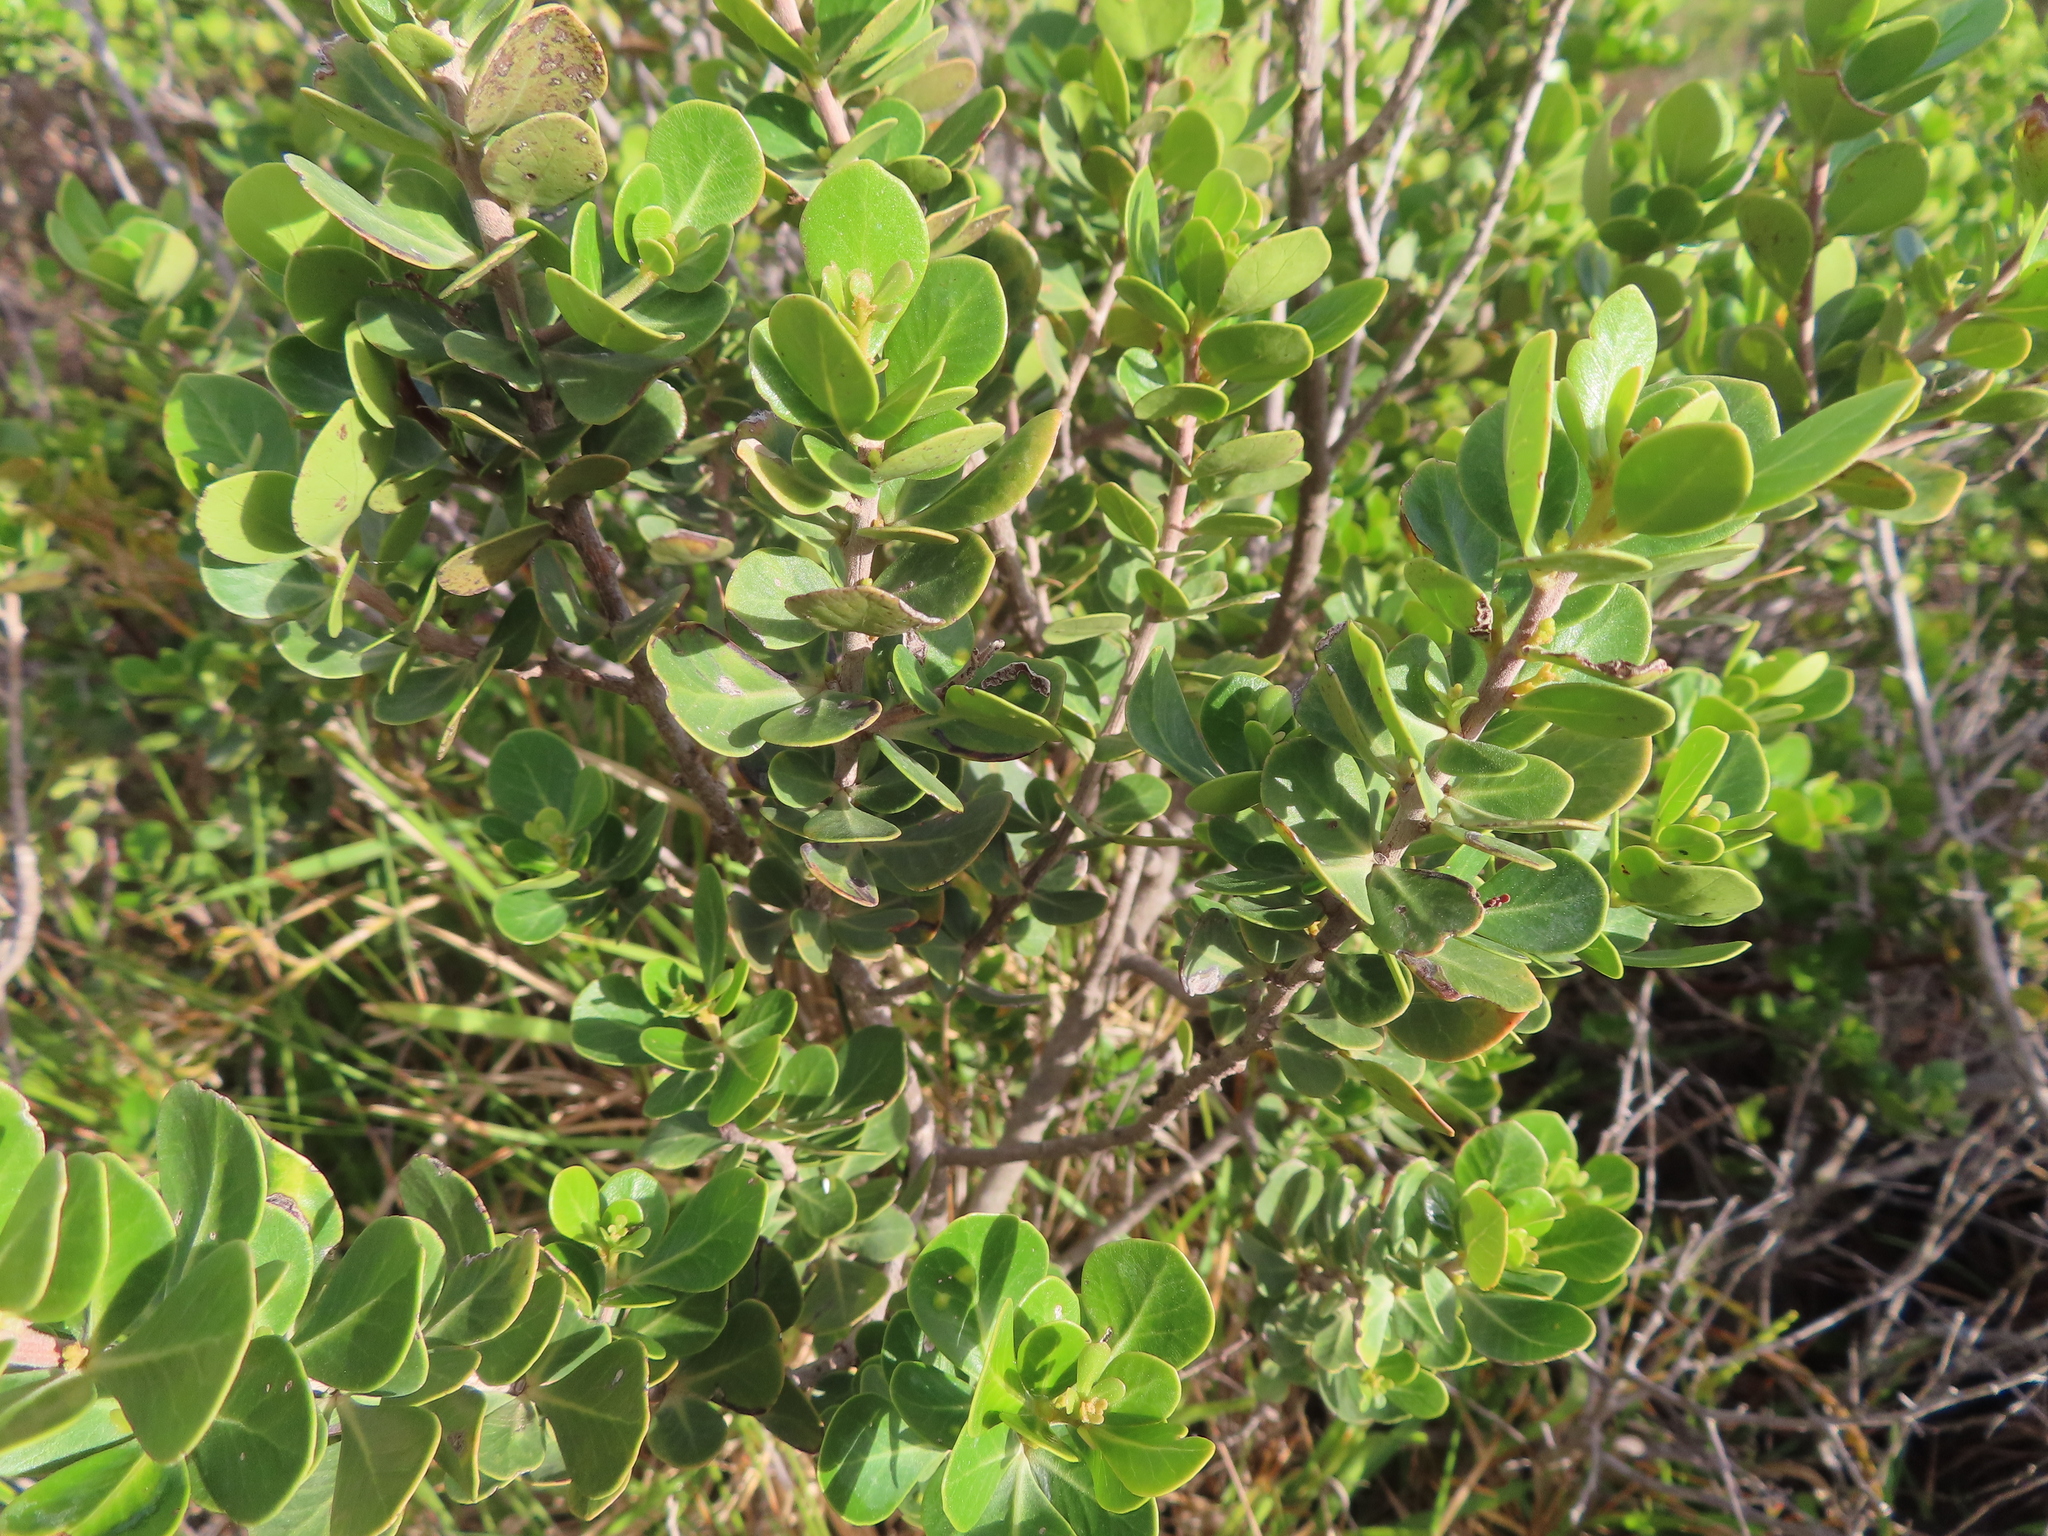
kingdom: Plantae
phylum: Tracheophyta
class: Magnoliopsida
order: Celastrales
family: Celastraceae
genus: Pterocelastrus
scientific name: Pterocelastrus tricuspidatus
